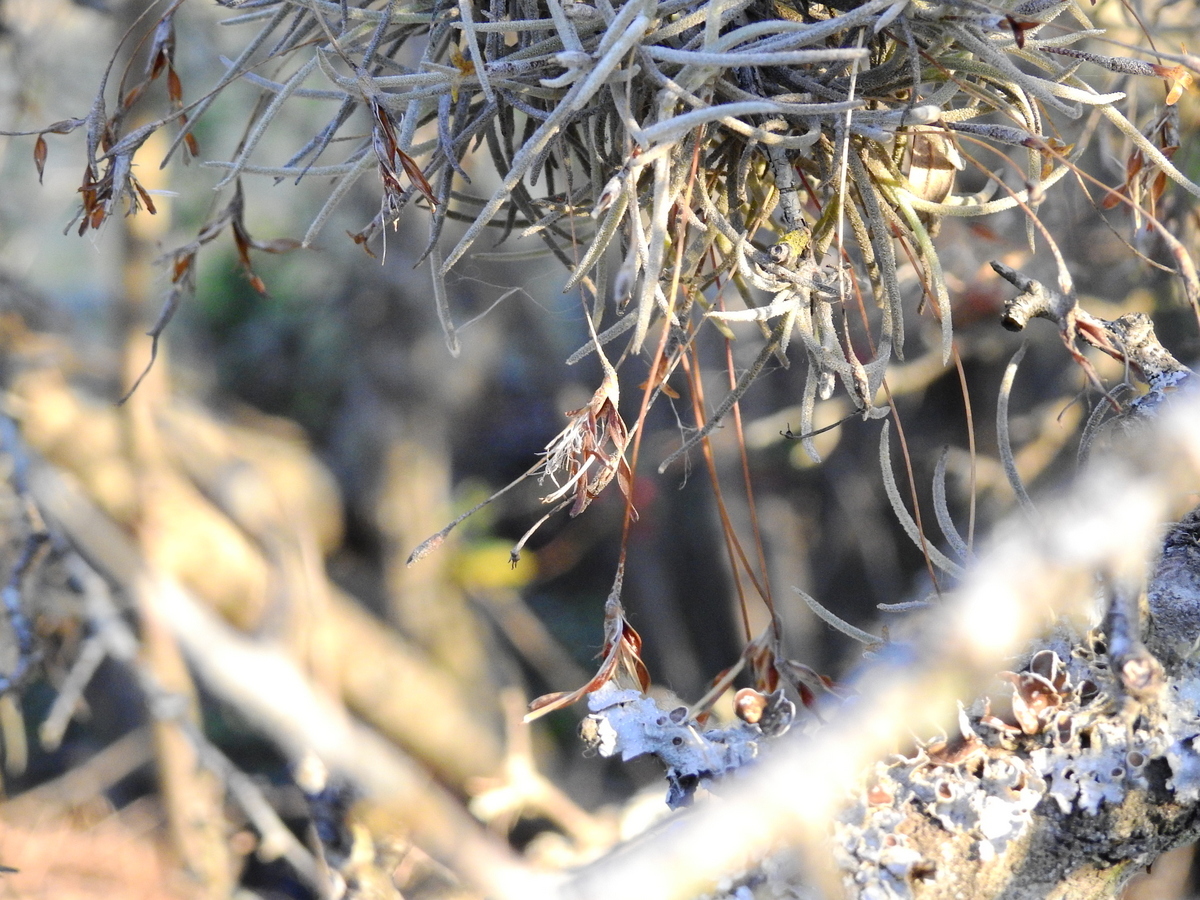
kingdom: Plantae
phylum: Tracheophyta
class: Liliopsida
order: Poales
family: Bromeliaceae
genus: Tillandsia
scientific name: Tillandsia virescens
